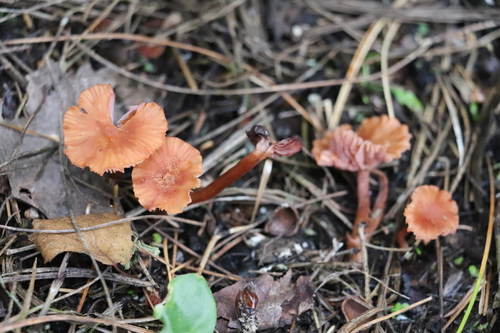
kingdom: Fungi
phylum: Basidiomycota
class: Agaricomycetes
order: Agaricales
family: Hydnangiaceae
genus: Laccaria
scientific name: Laccaria laccata
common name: Deceiver
